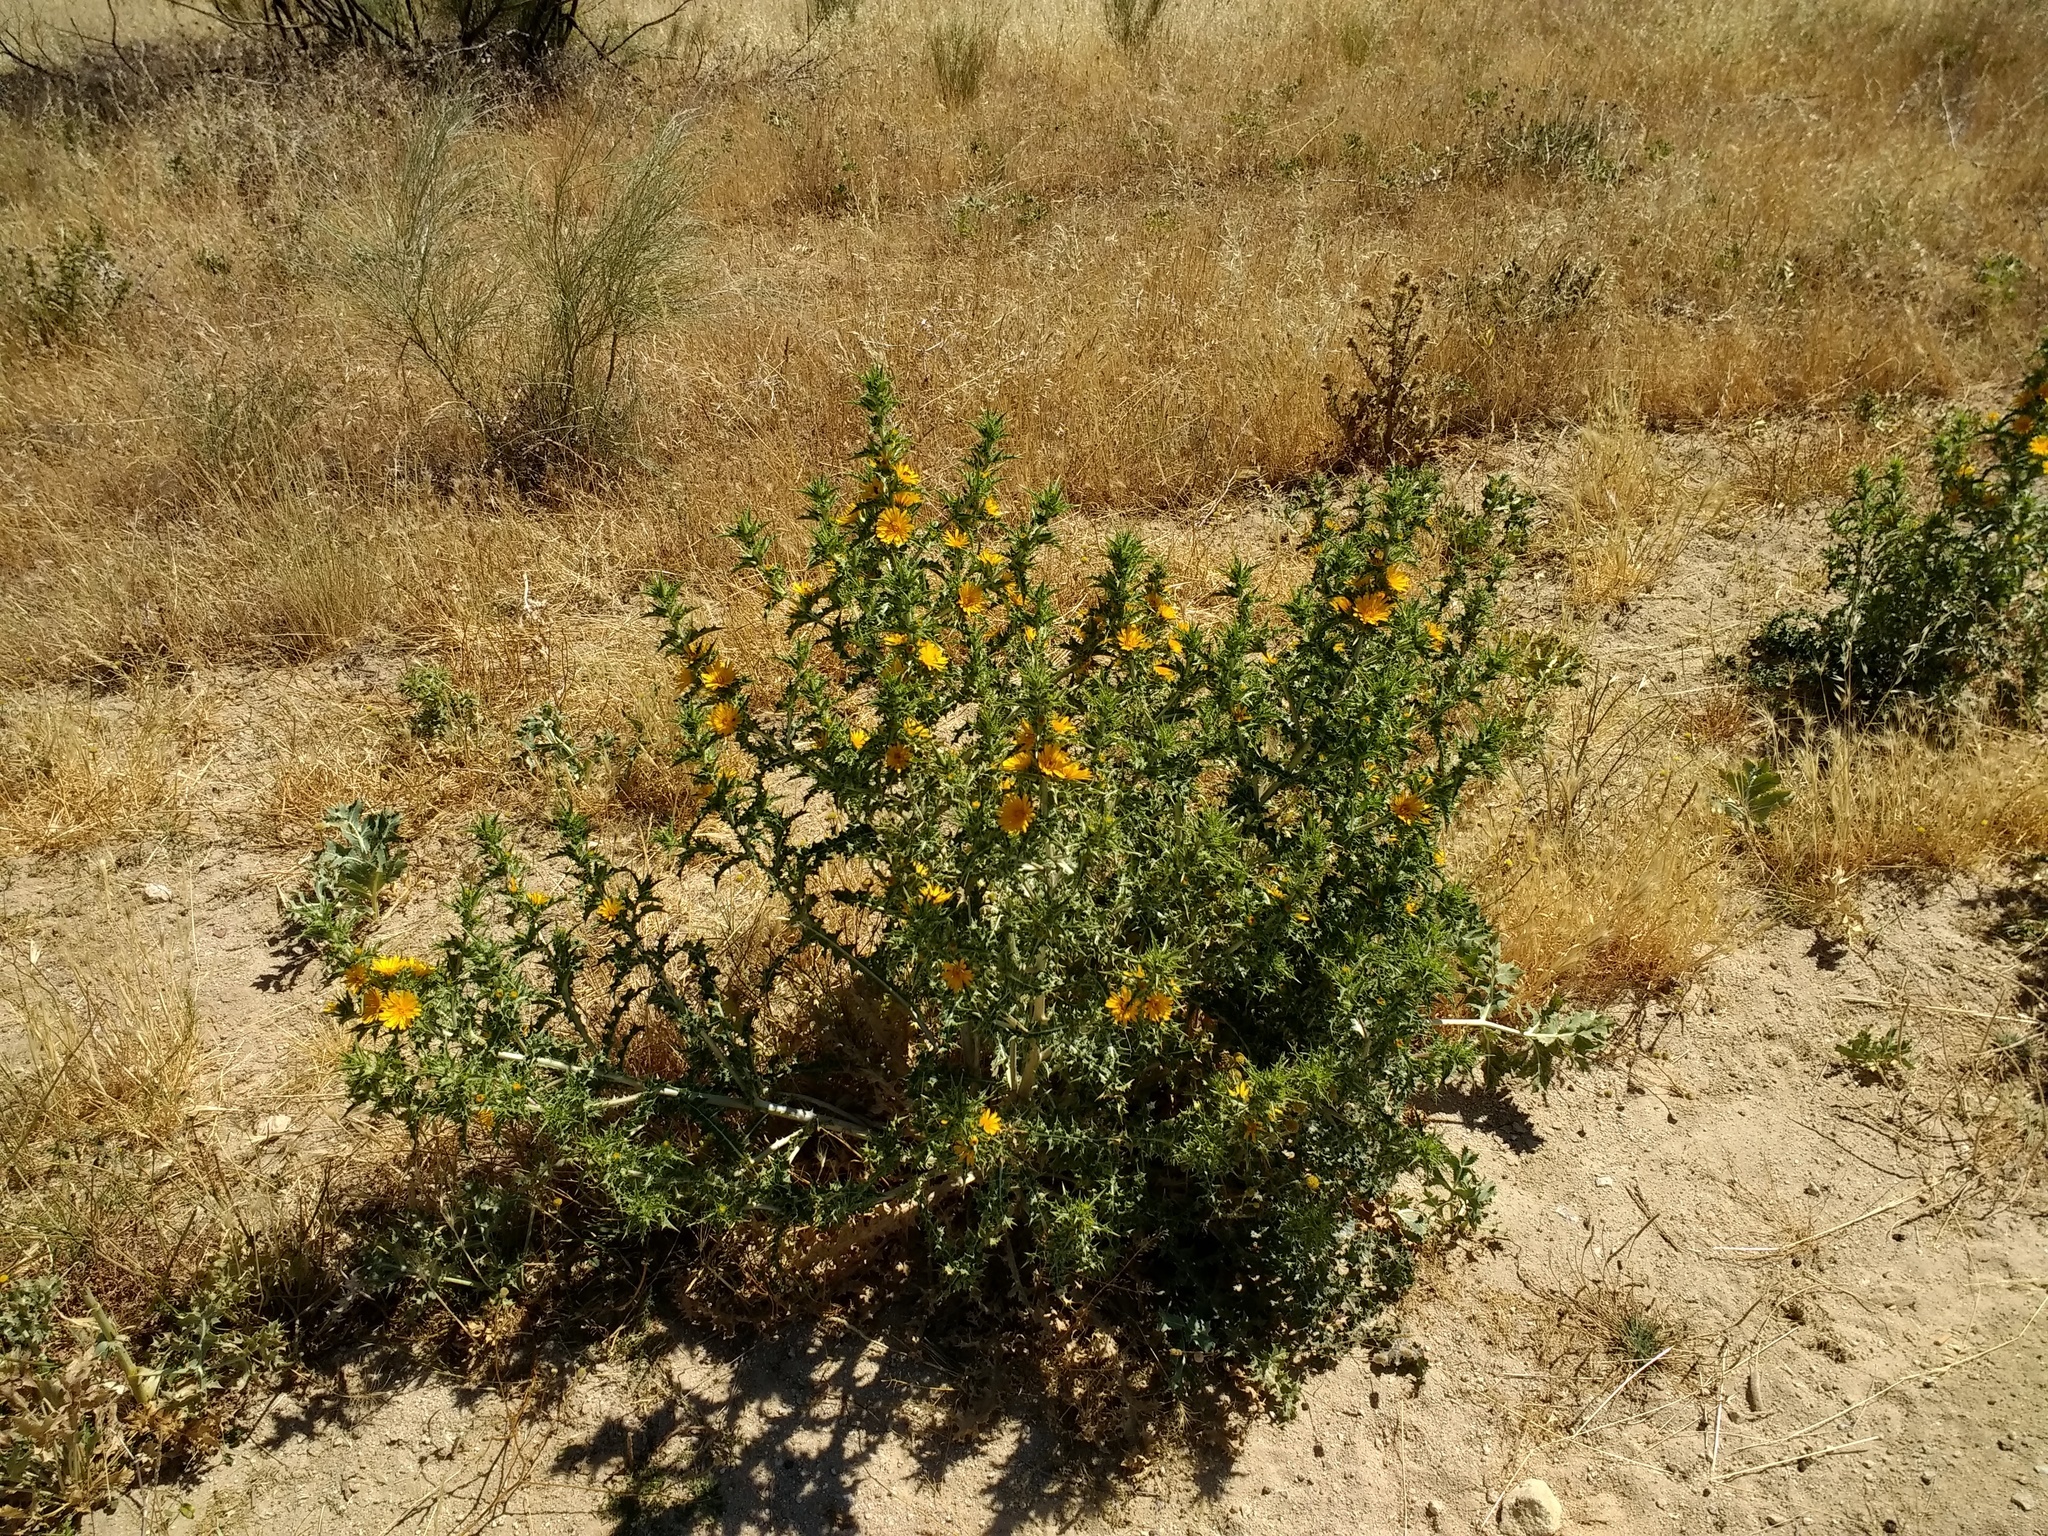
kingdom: Plantae
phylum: Tracheophyta
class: Magnoliopsida
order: Asterales
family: Asteraceae
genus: Scolymus
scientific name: Scolymus hispanicus
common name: Golden thistle
